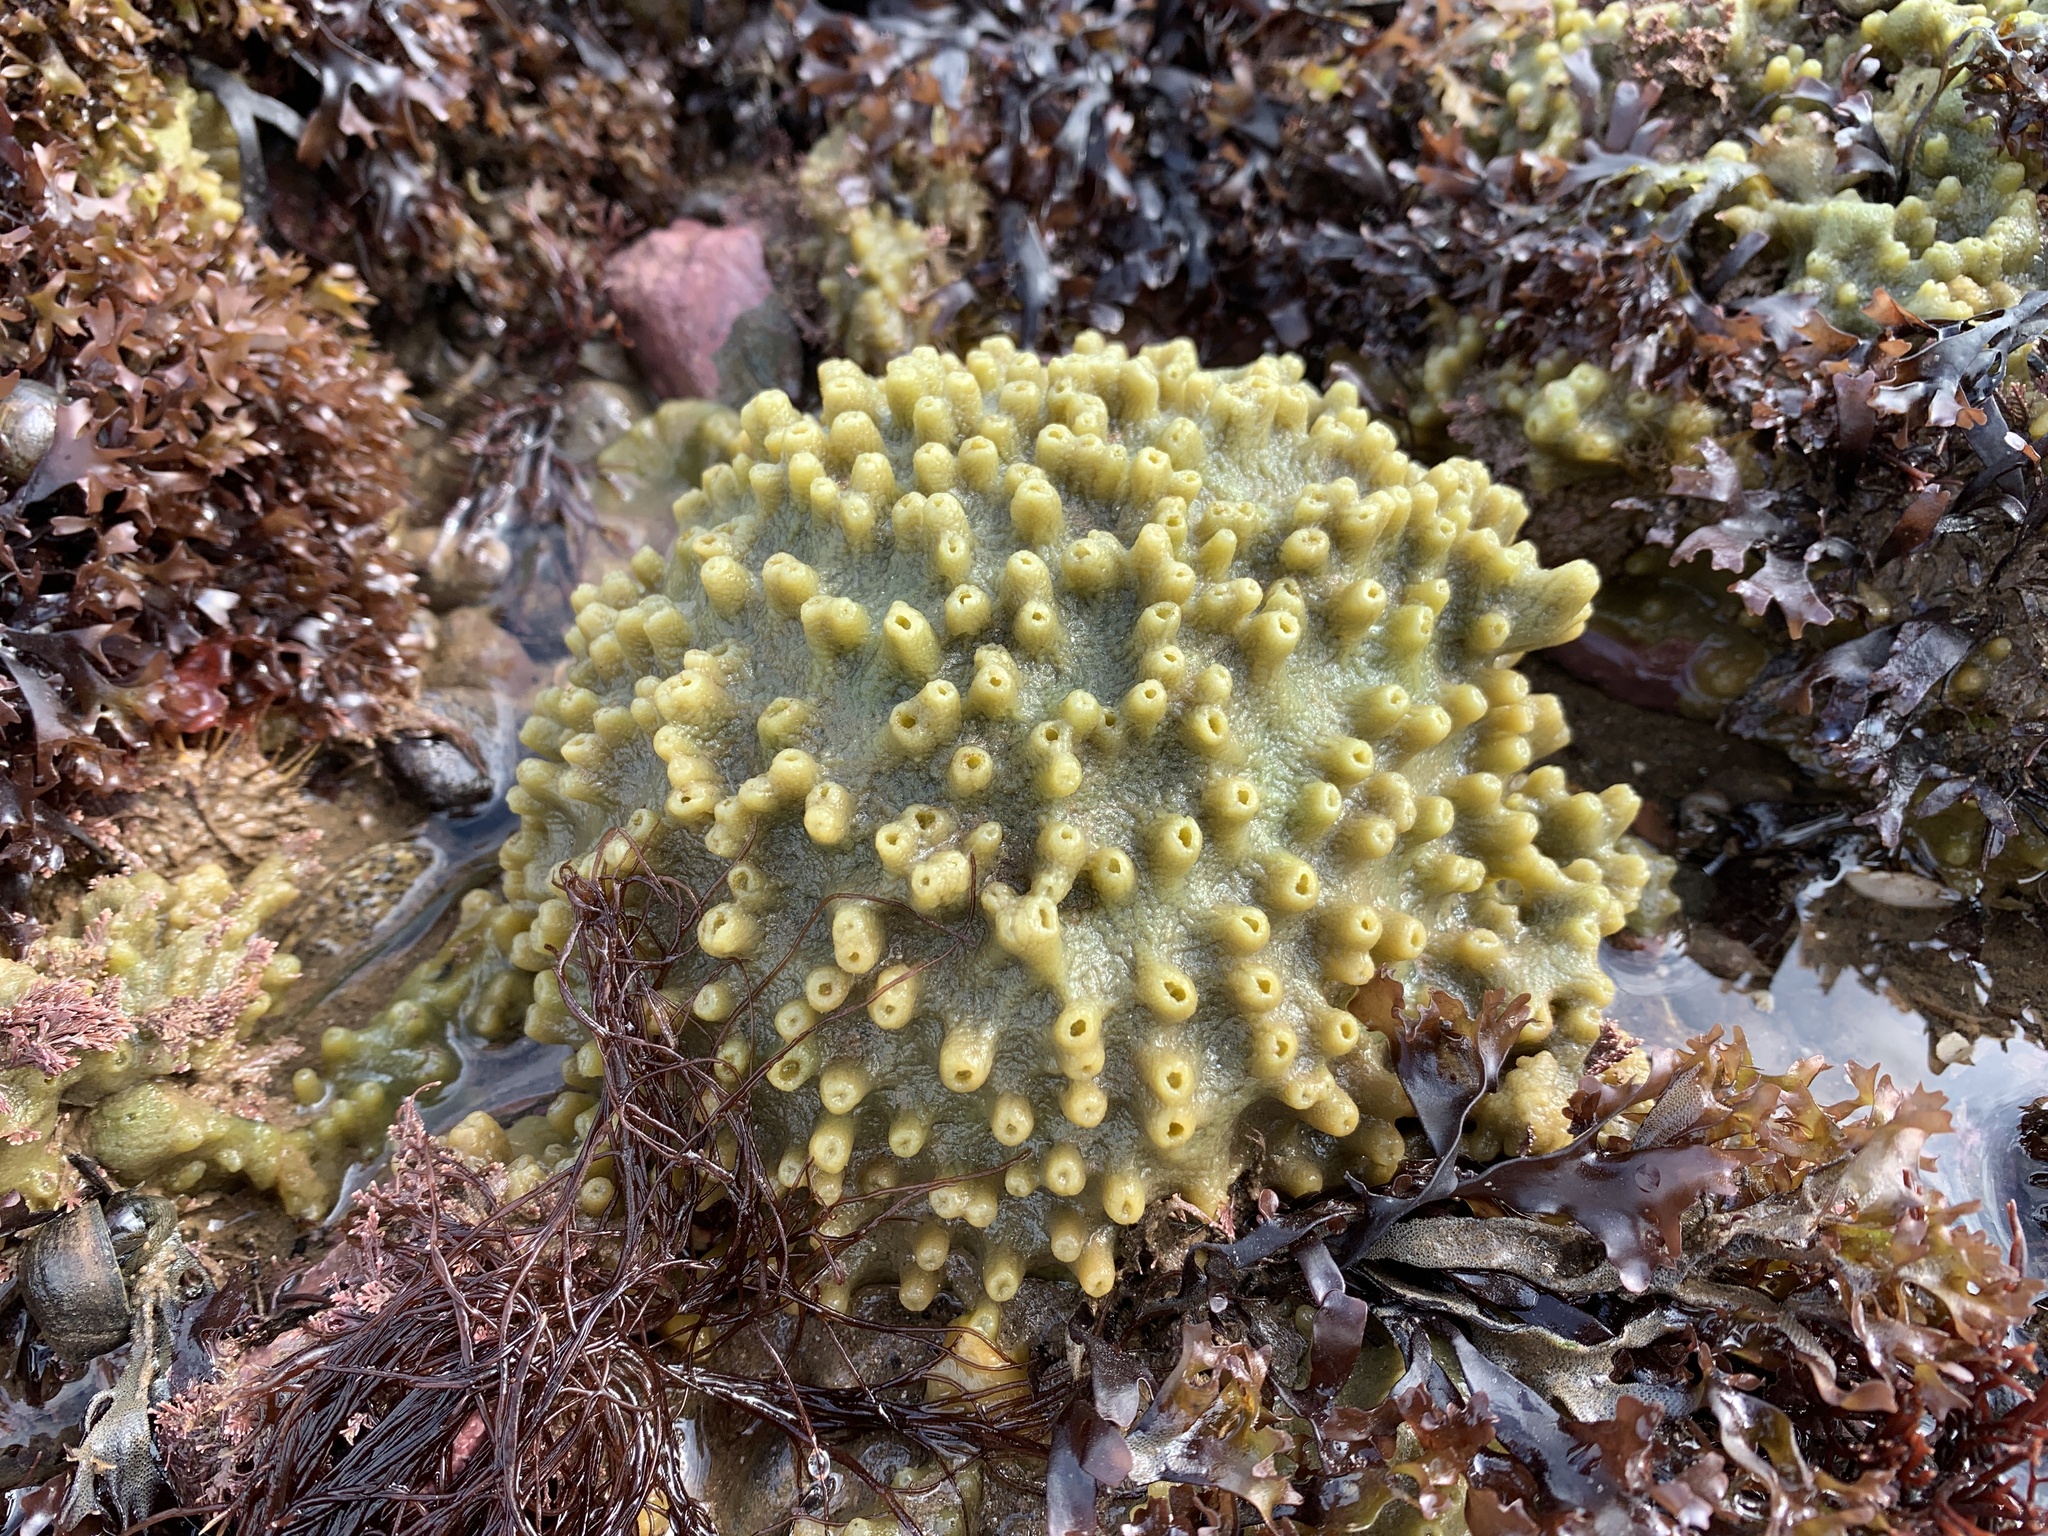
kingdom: Animalia
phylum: Porifera
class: Demospongiae
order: Suberitida
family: Halichondriidae
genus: Halichondria
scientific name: Halichondria panicea
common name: Breadcrumb sponge
